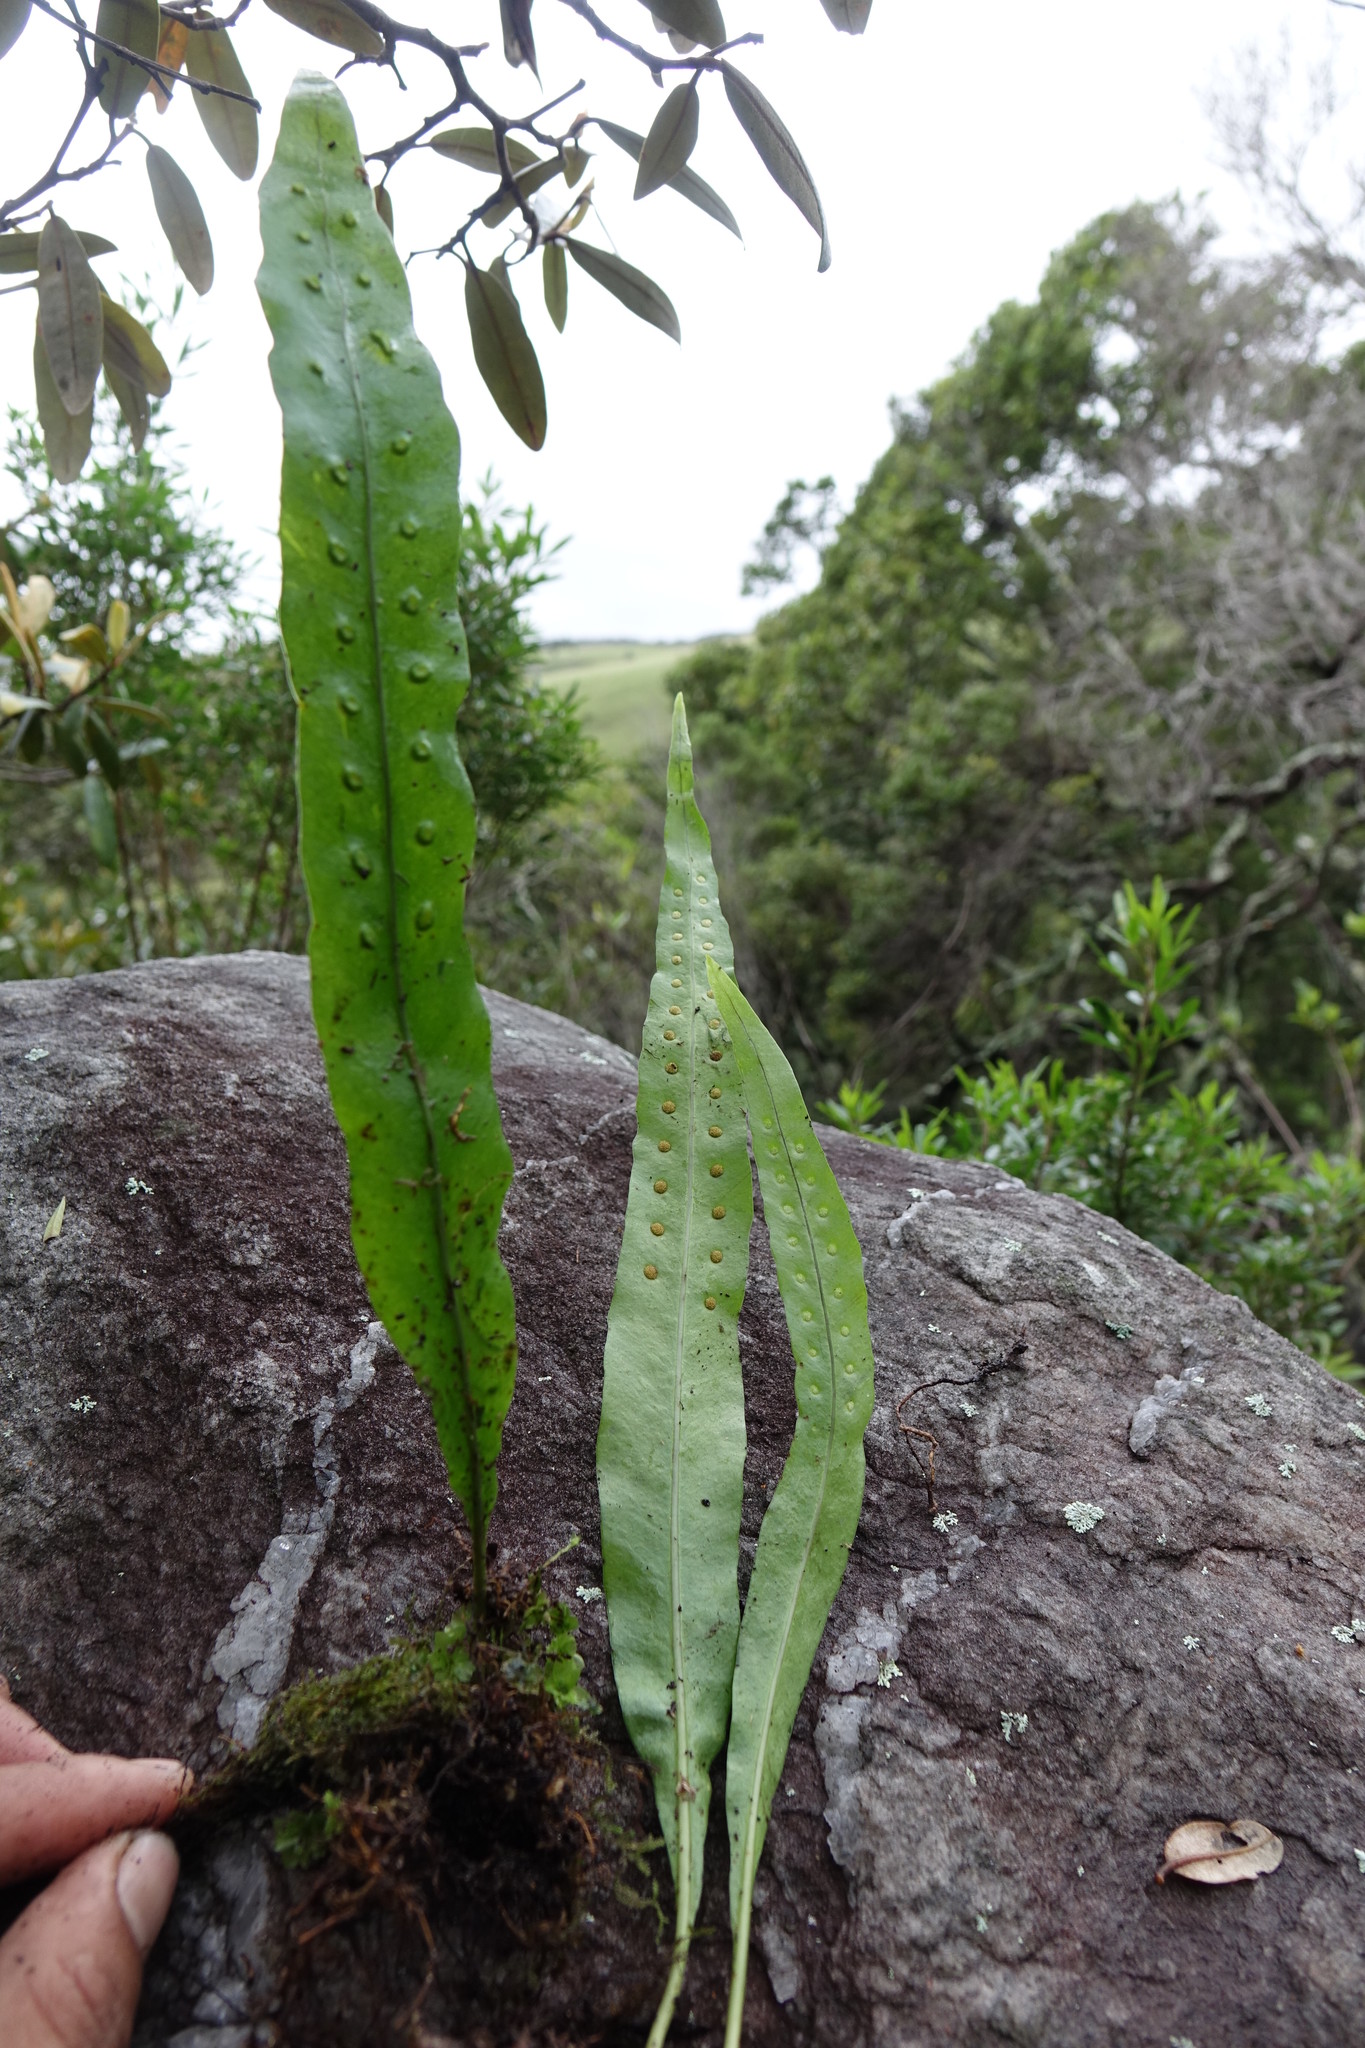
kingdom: Plantae
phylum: Tracheophyta
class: Polypodiopsida
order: Polypodiales
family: Polypodiaceae
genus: Lepisorus
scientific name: Lepisorus excavatus
